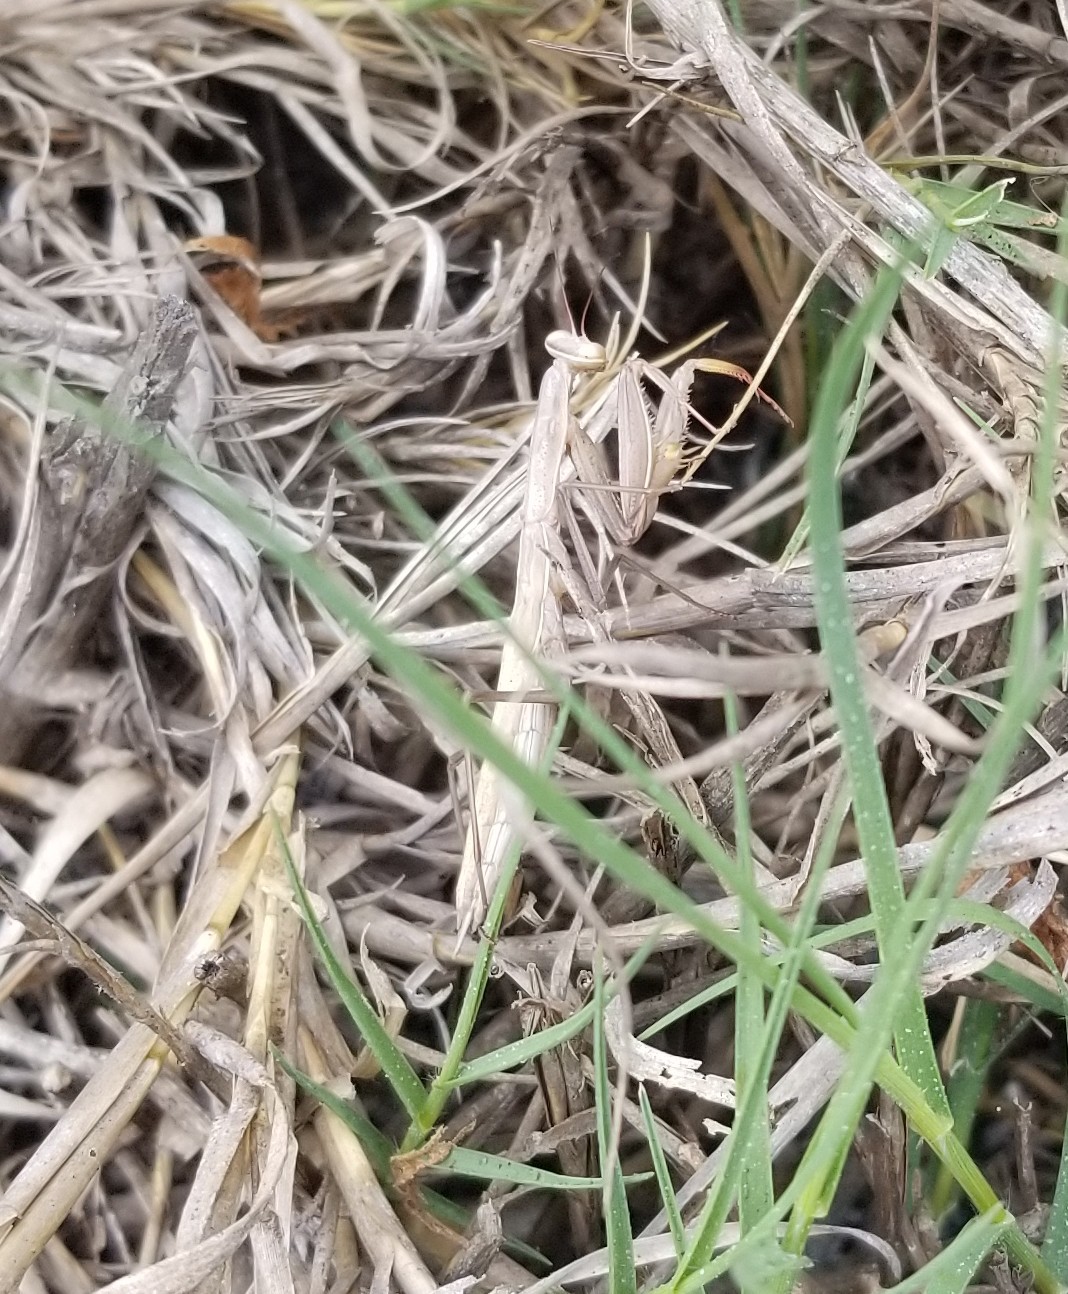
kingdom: Animalia
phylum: Arthropoda
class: Insecta
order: Mantodea
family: Mantidae
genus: Mantis
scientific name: Mantis religiosa
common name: Praying mantis
